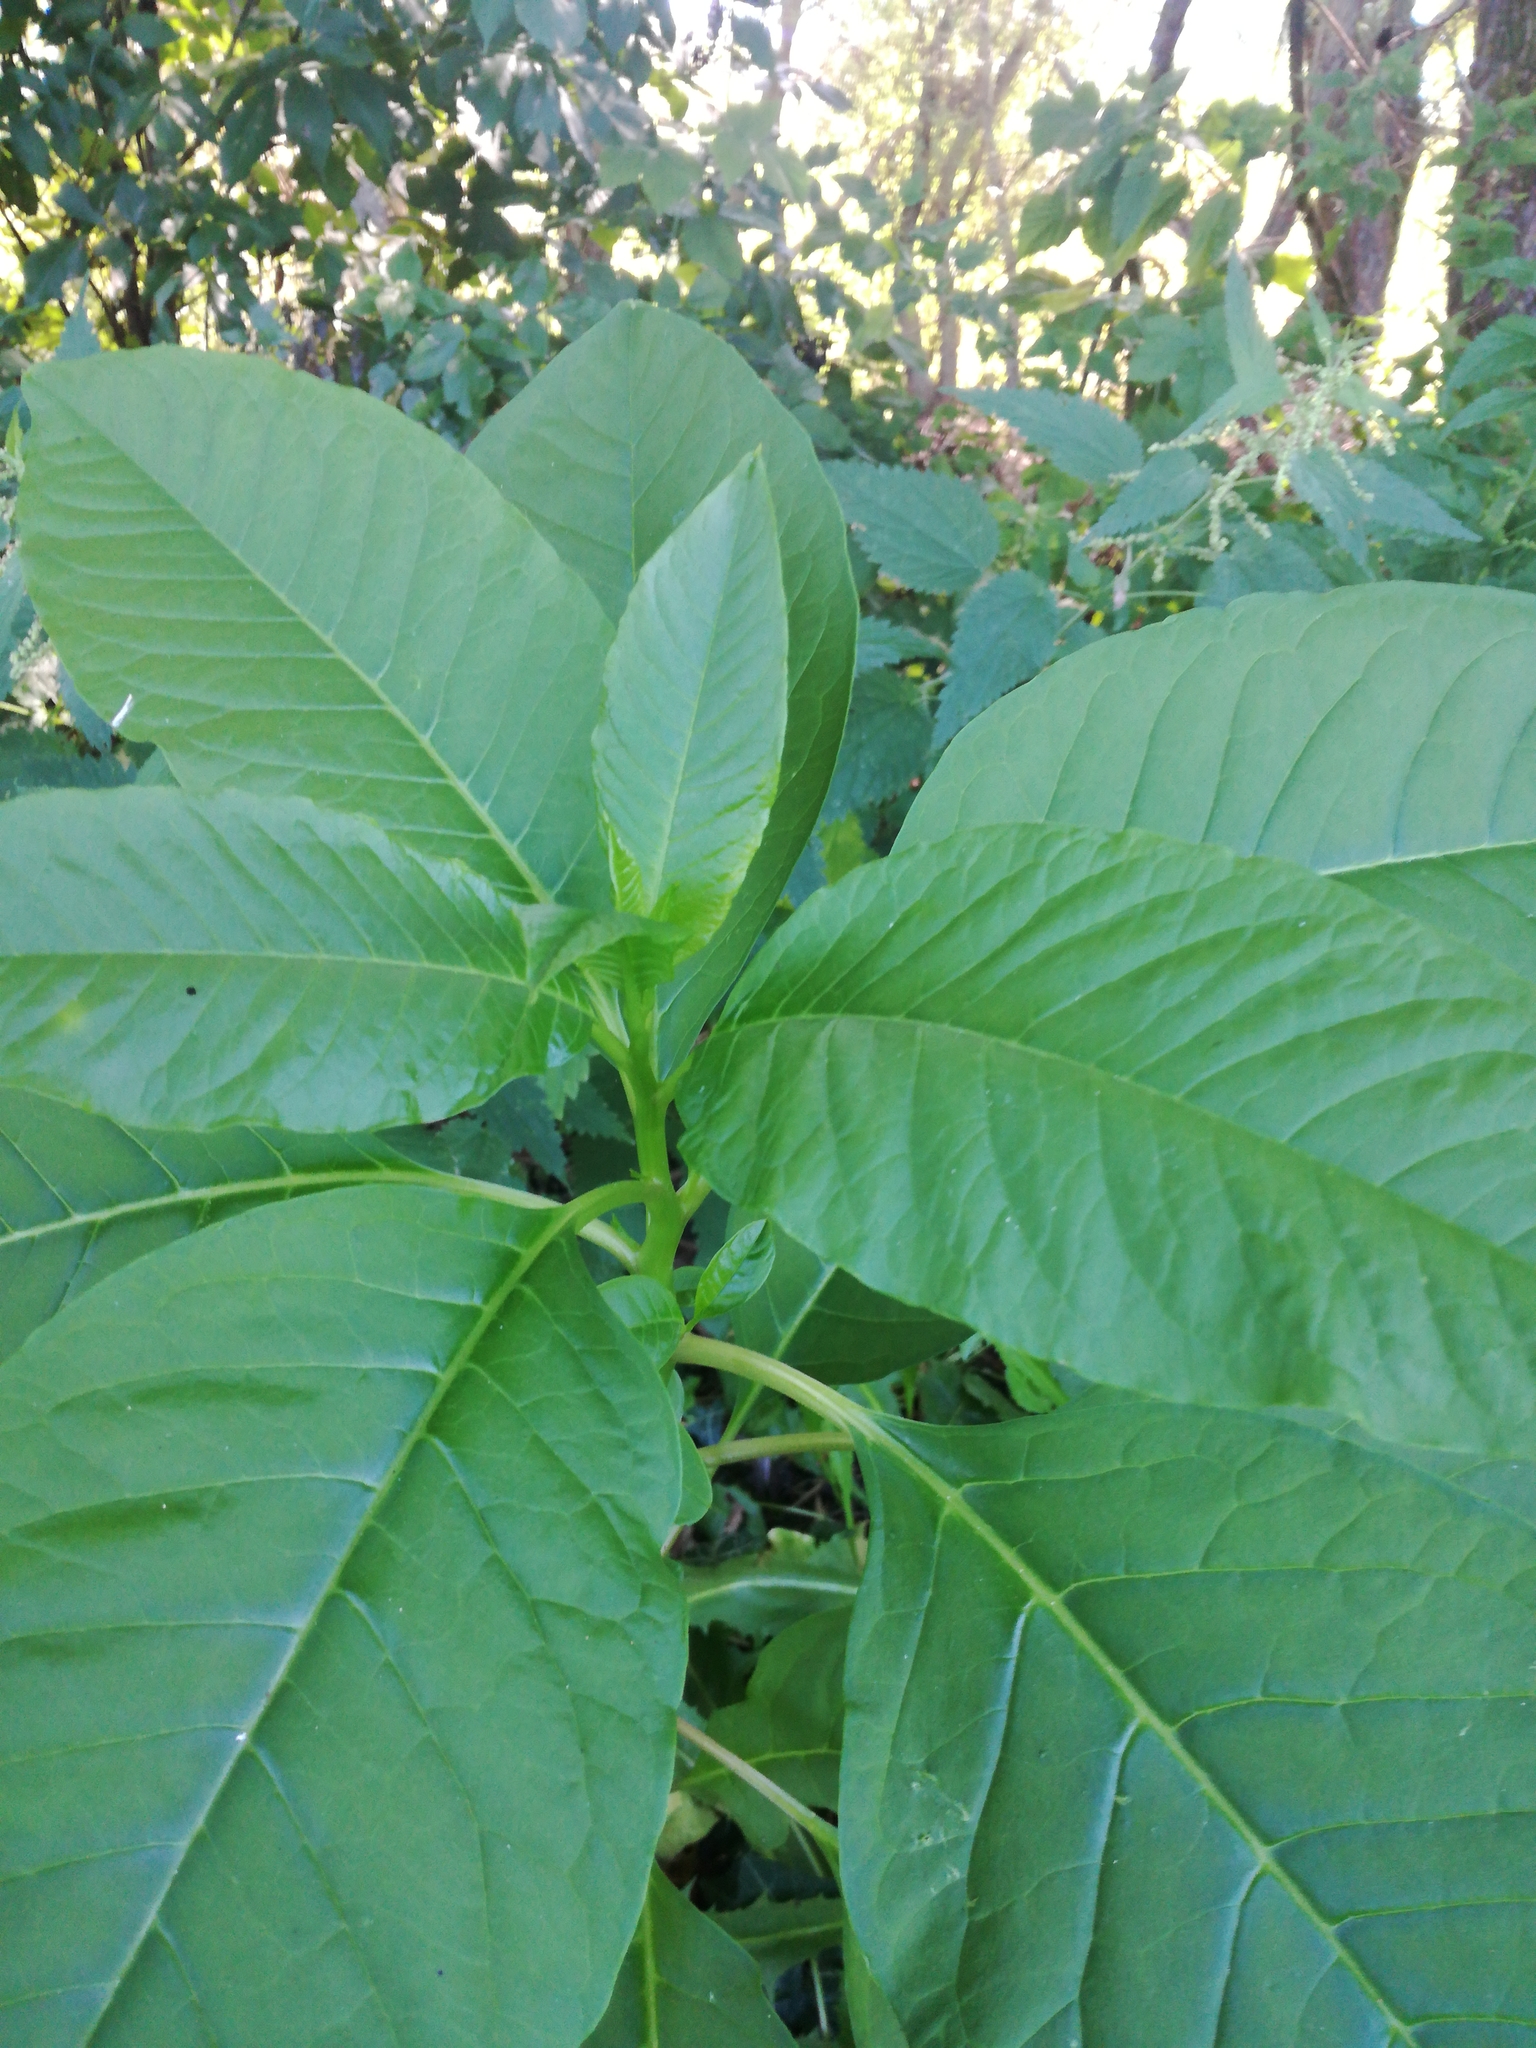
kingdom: Plantae
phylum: Tracheophyta
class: Magnoliopsida
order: Caryophyllales
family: Phytolaccaceae
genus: Phytolacca
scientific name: Phytolacca americana
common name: American pokeweed
